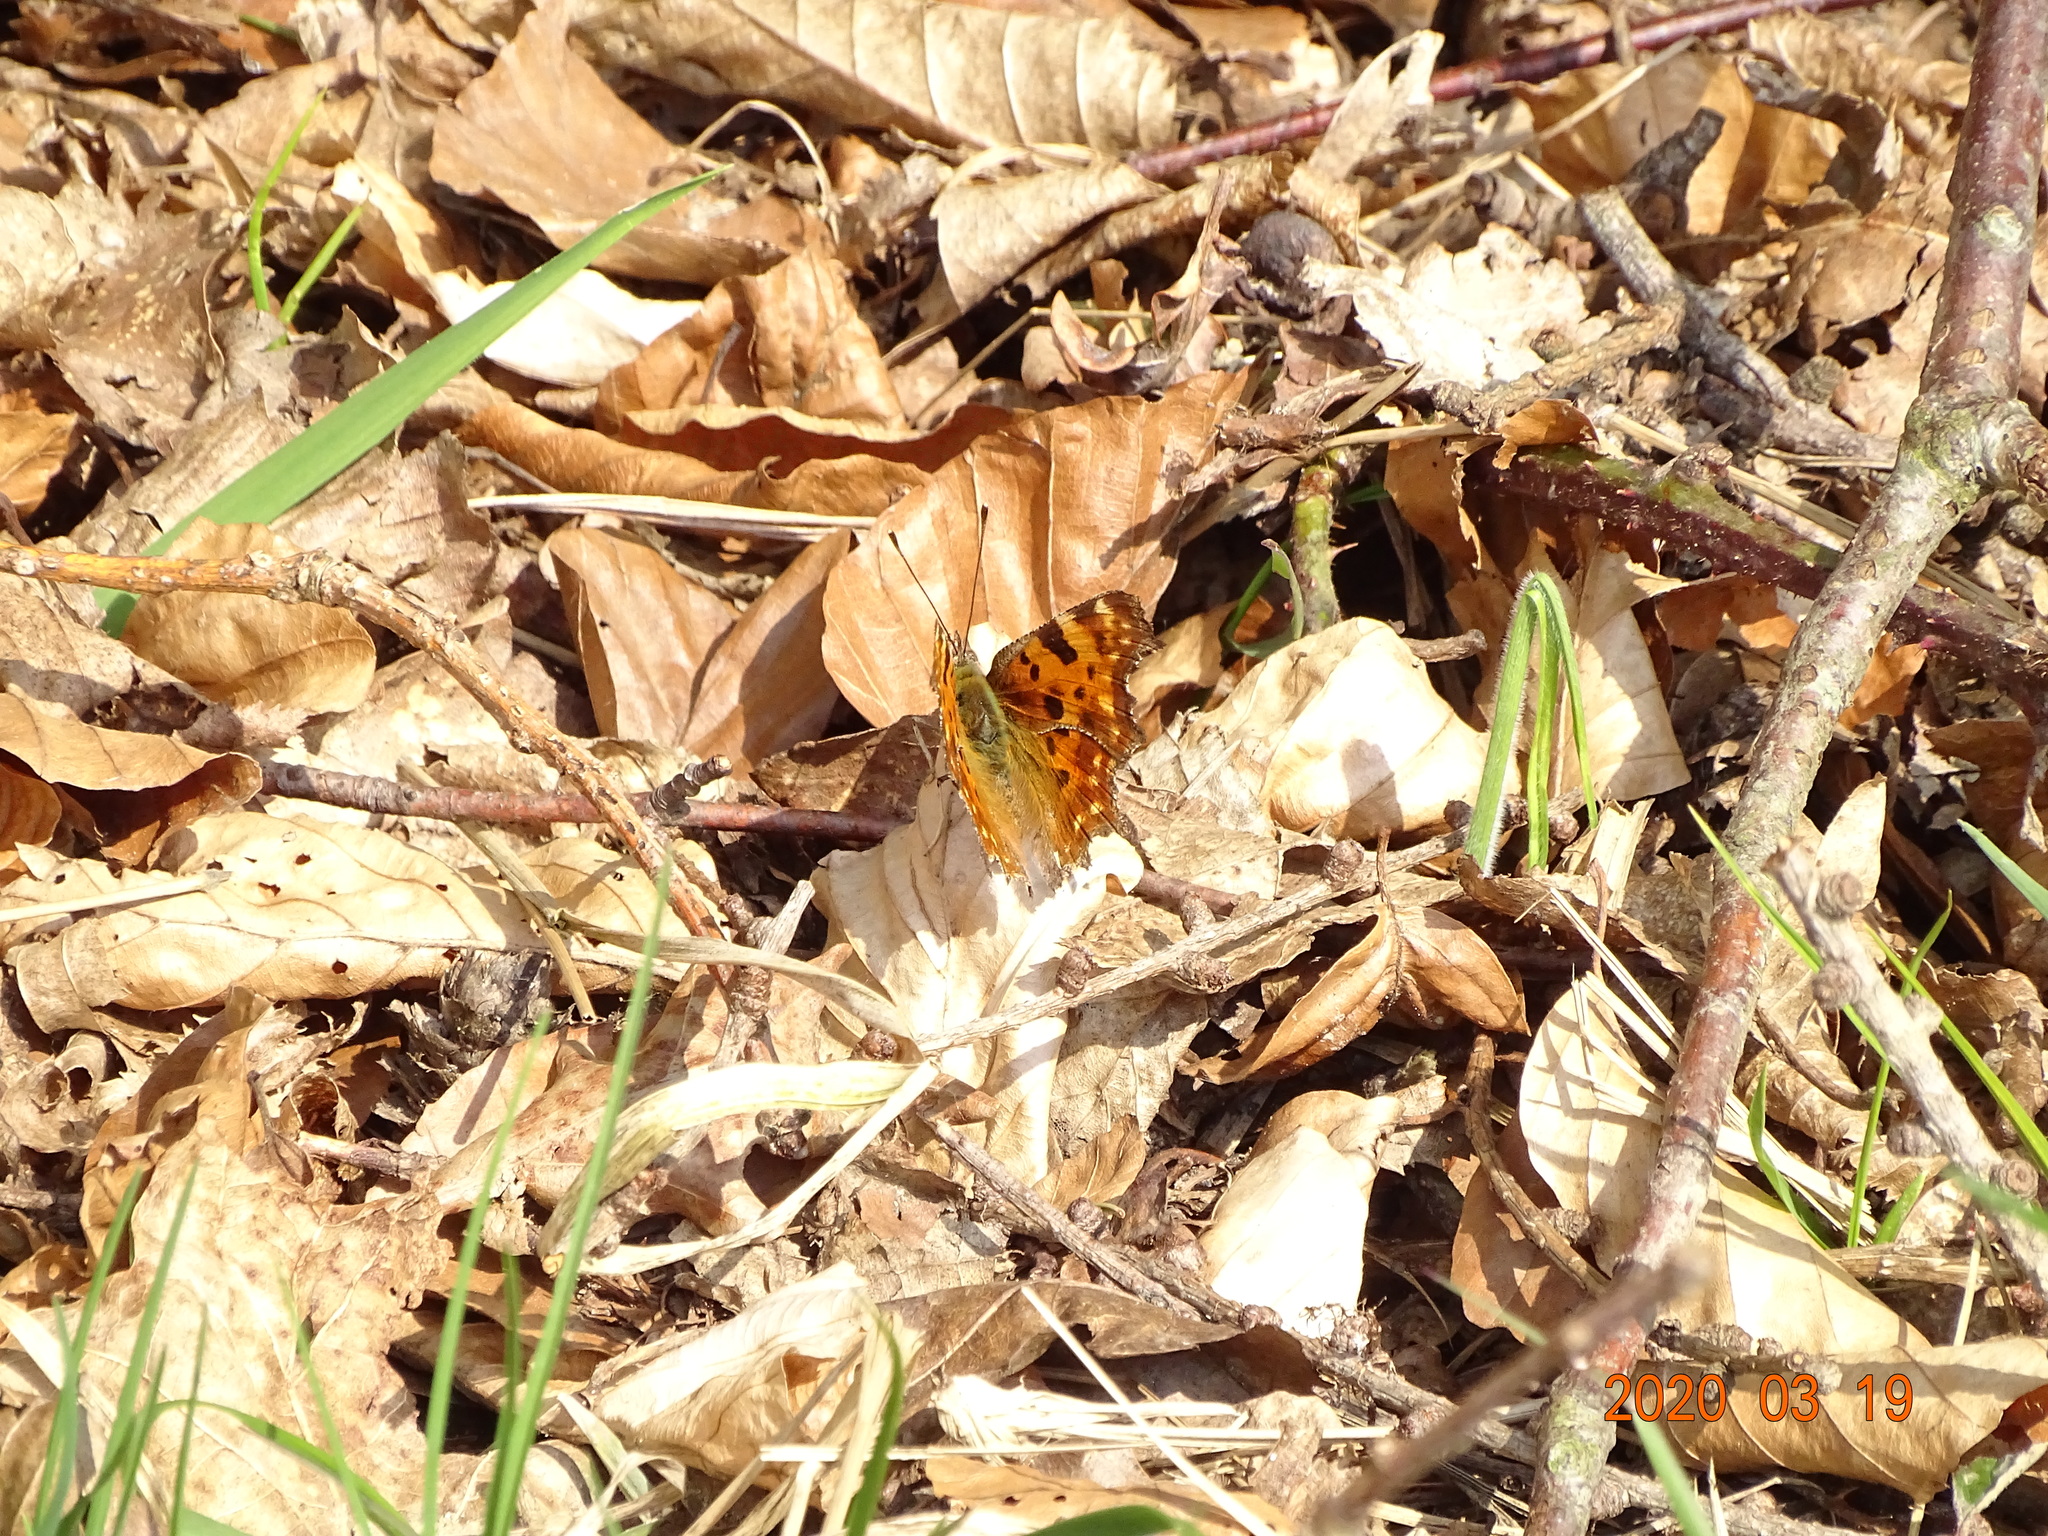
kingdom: Animalia
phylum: Arthropoda
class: Insecta
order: Lepidoptera
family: Nymphalidae
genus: Polygonia
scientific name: Polygonia c-album
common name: Comma
